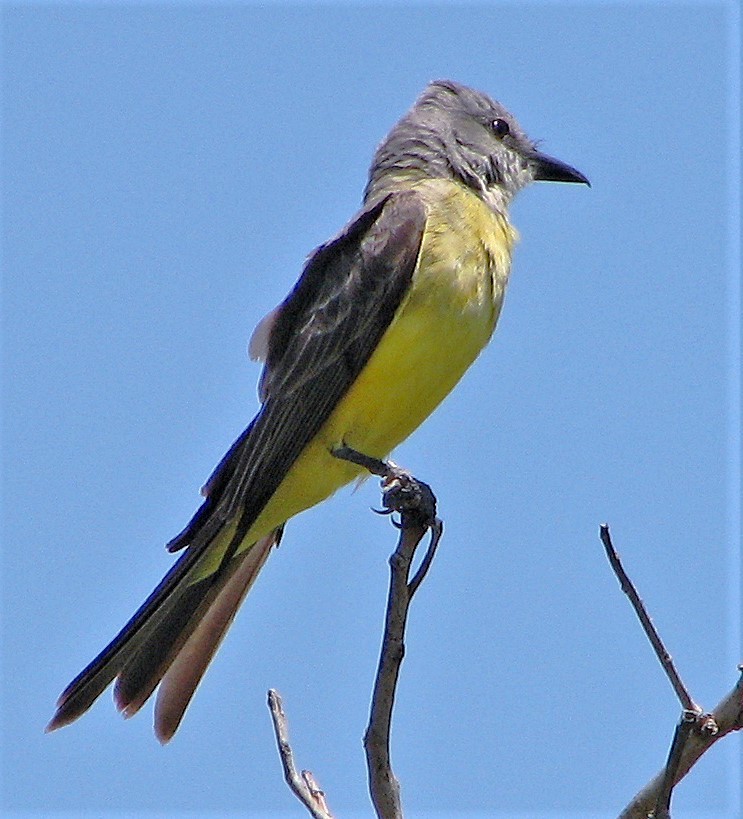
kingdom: Animalia
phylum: Chordata
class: Aves
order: Passeriformes
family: Tyrannidae
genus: Tyrannus
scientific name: Tyrannus melancholicus
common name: Tropical kingbird
